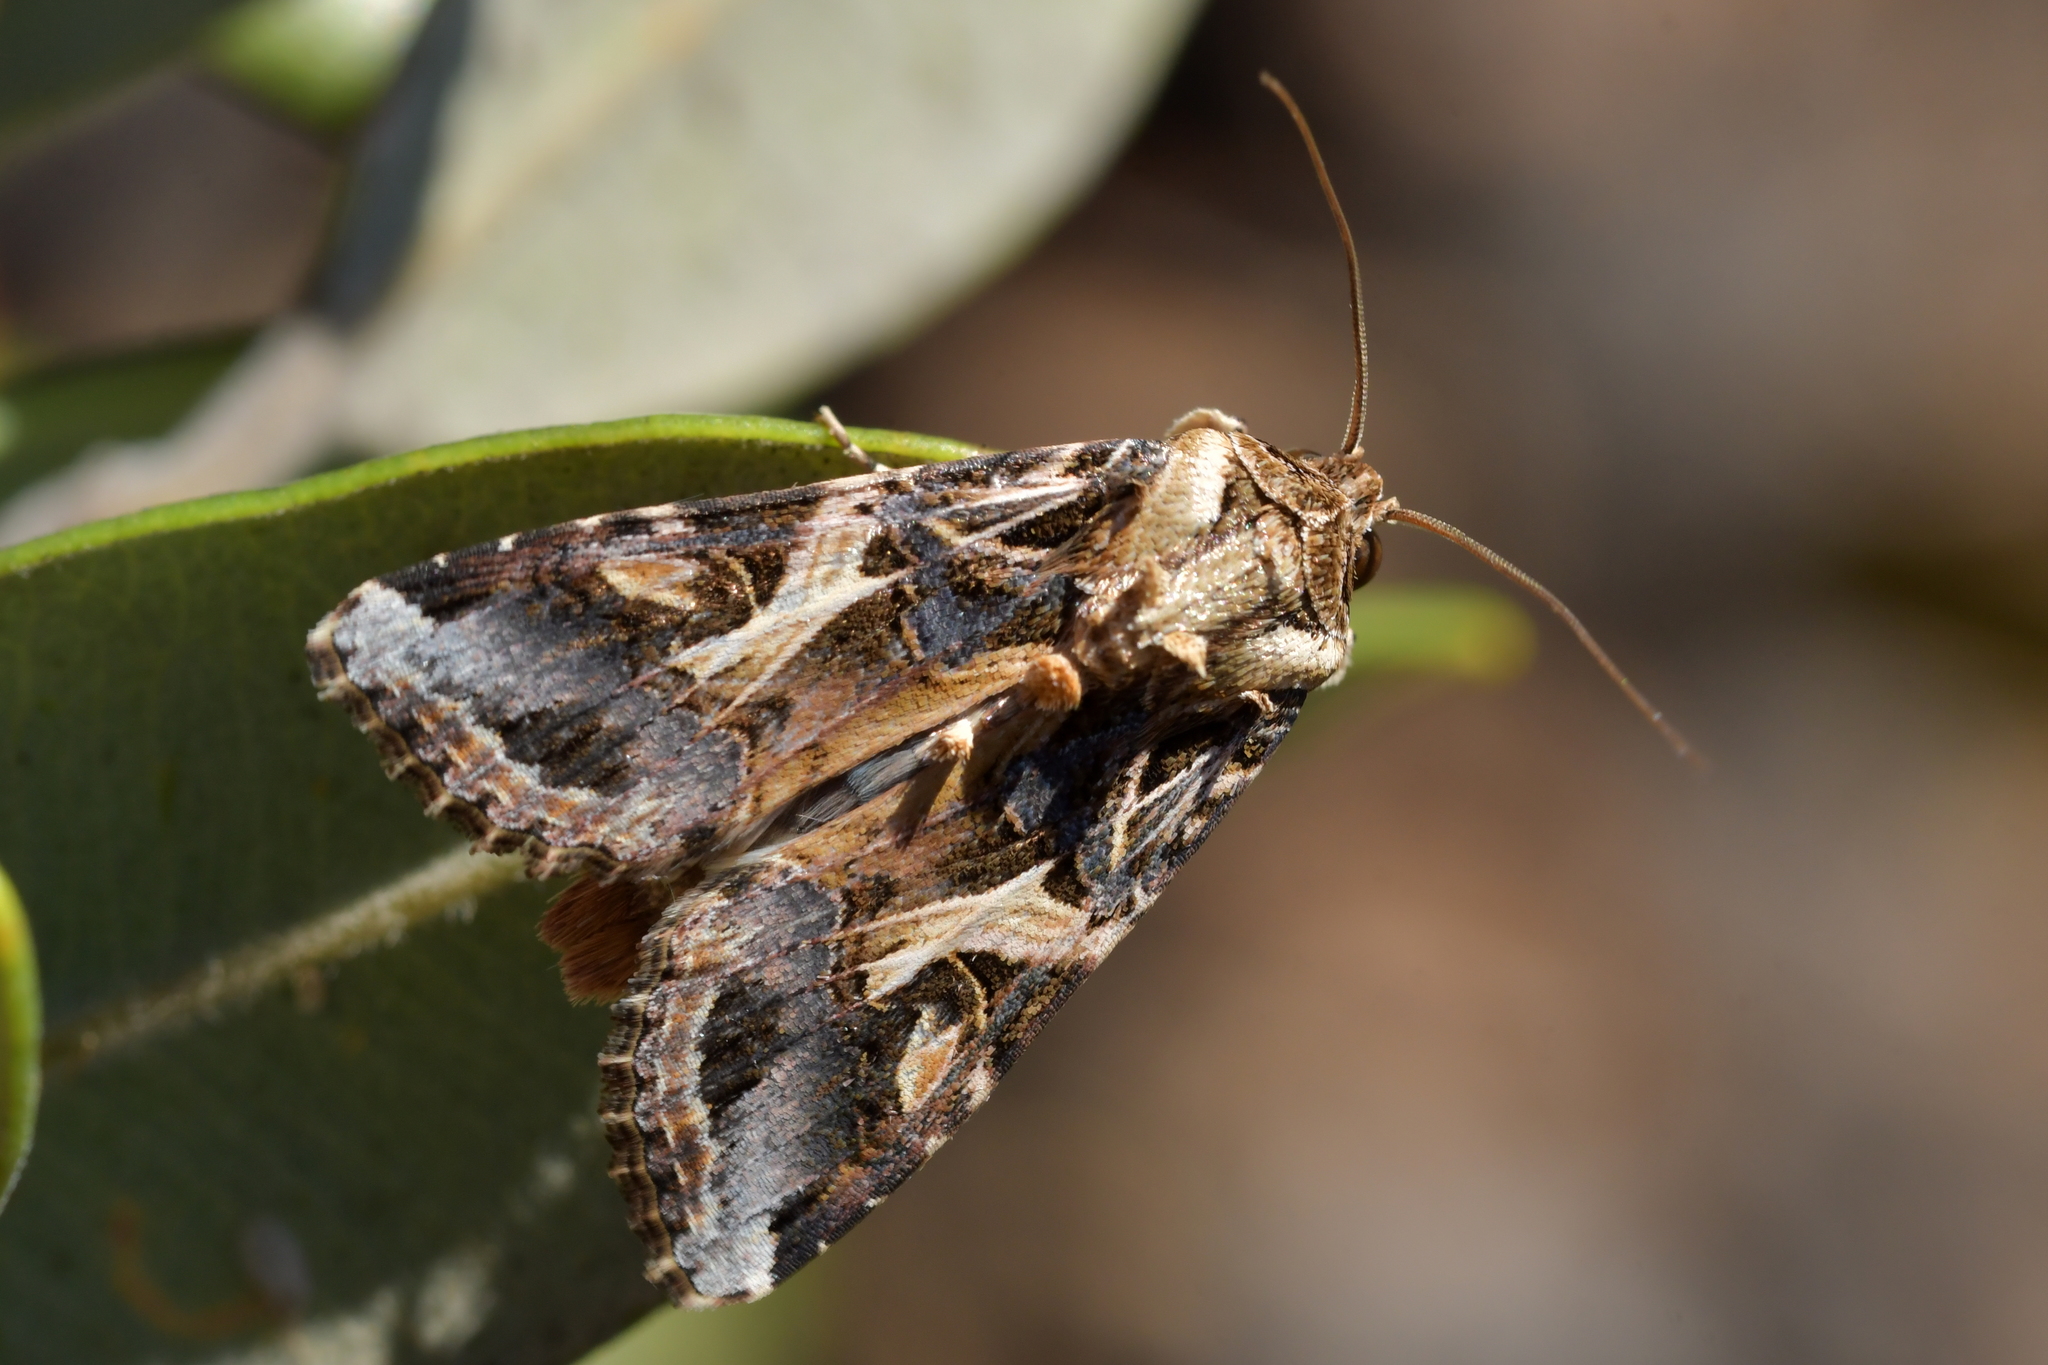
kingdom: Animalia
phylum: Arthropoda
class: Insecta
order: Lepidoptera
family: Noctuidae
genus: Spodoptera
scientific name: Spodoptera litura
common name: Asian cotton leafworm
